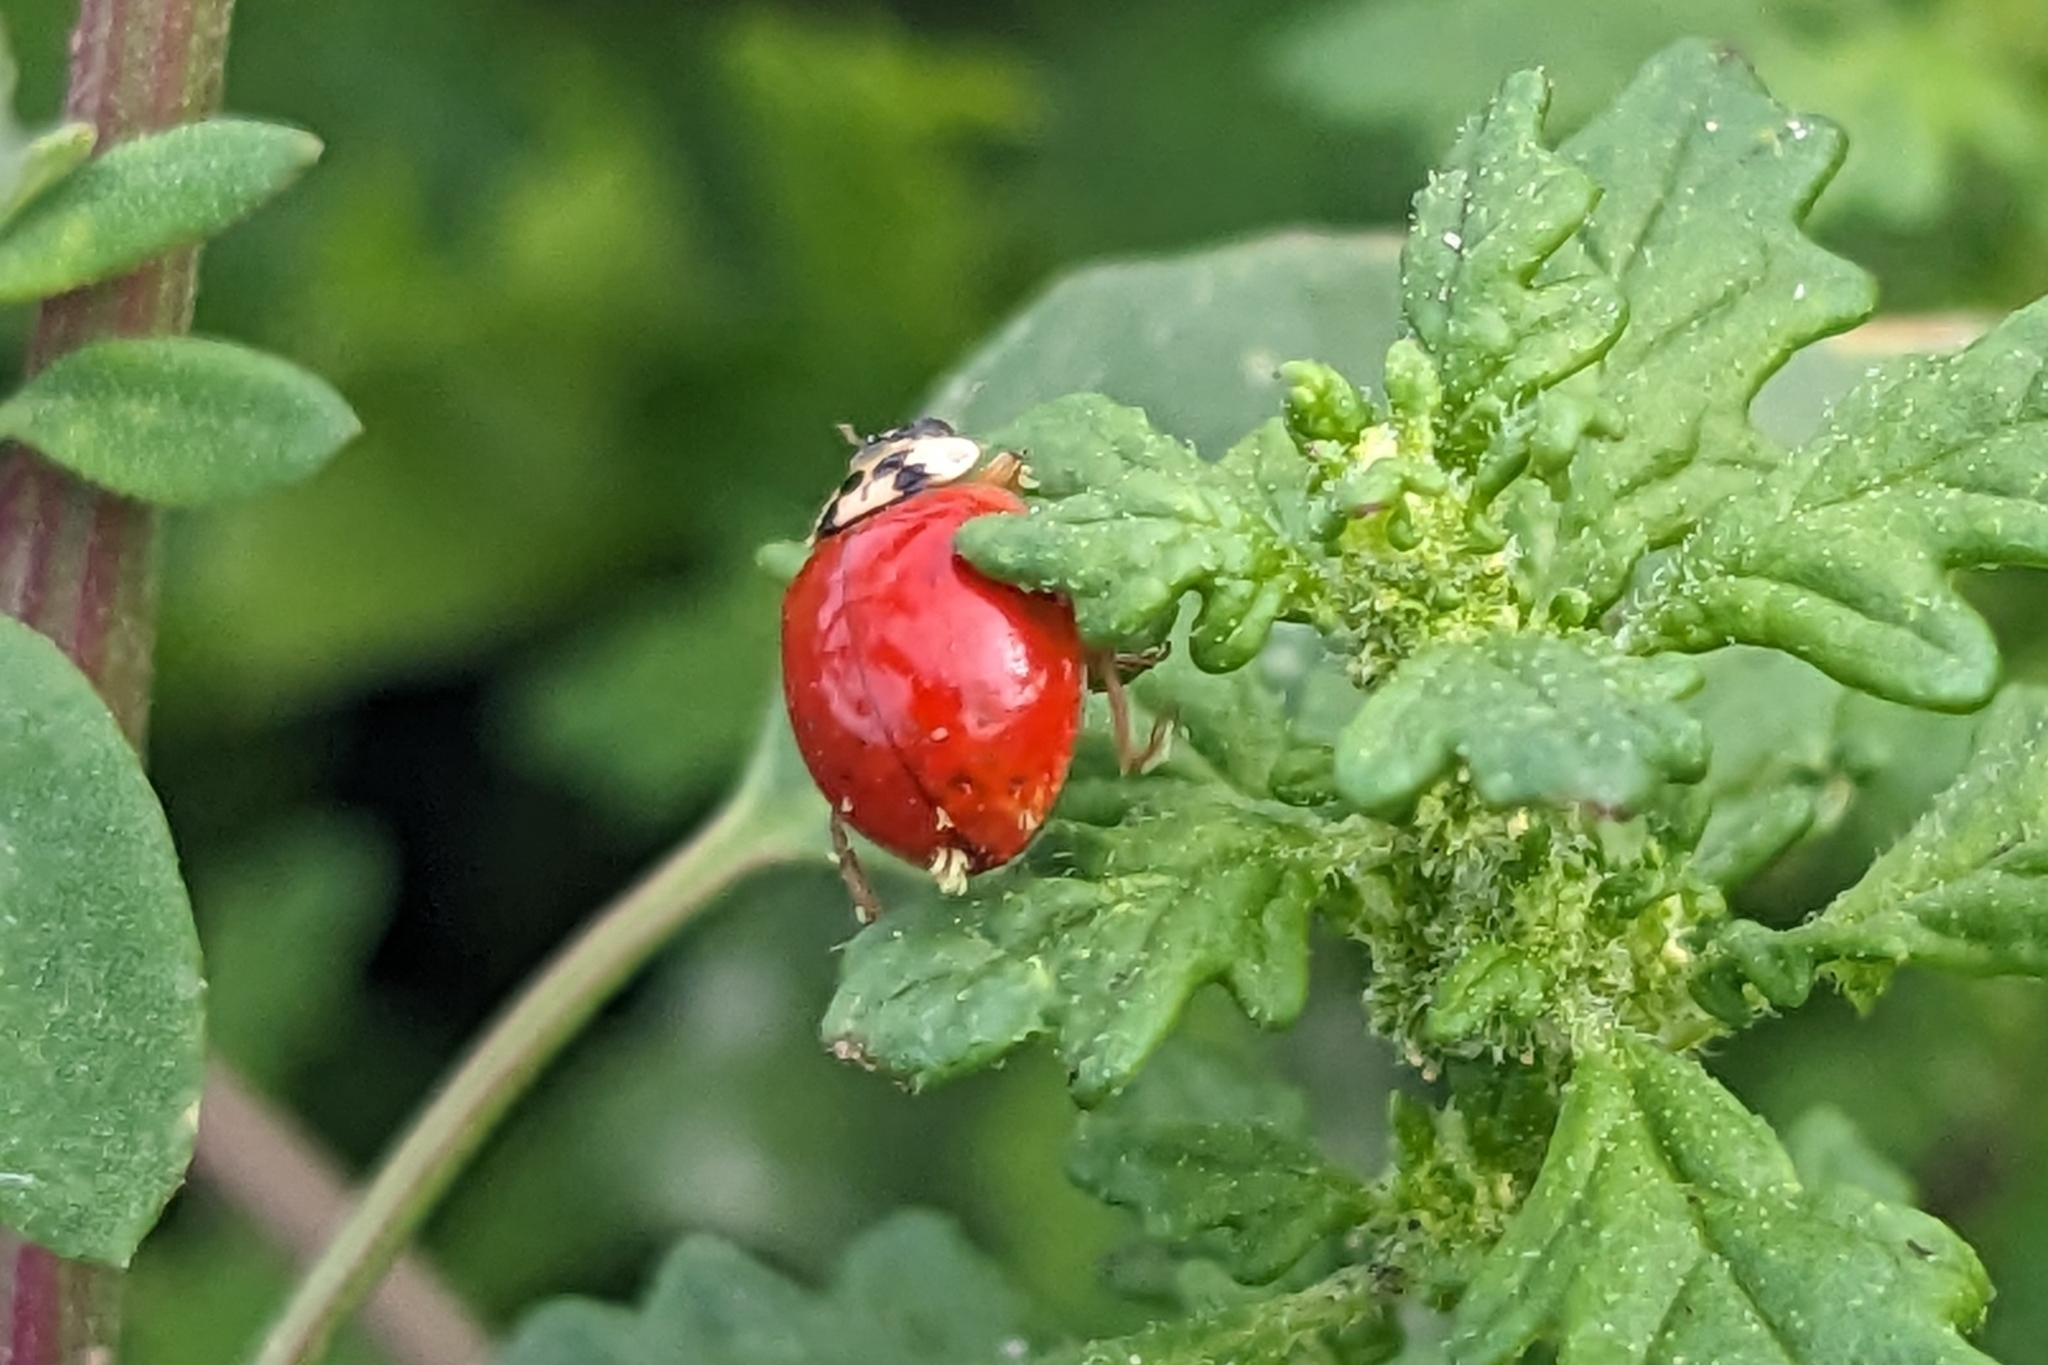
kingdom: Animalia
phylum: Arthropoda
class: Insecta
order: Coleoptera
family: Coccinellidae
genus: Harmonia
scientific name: Harmonia axyridis
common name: Harlequin ladybird
